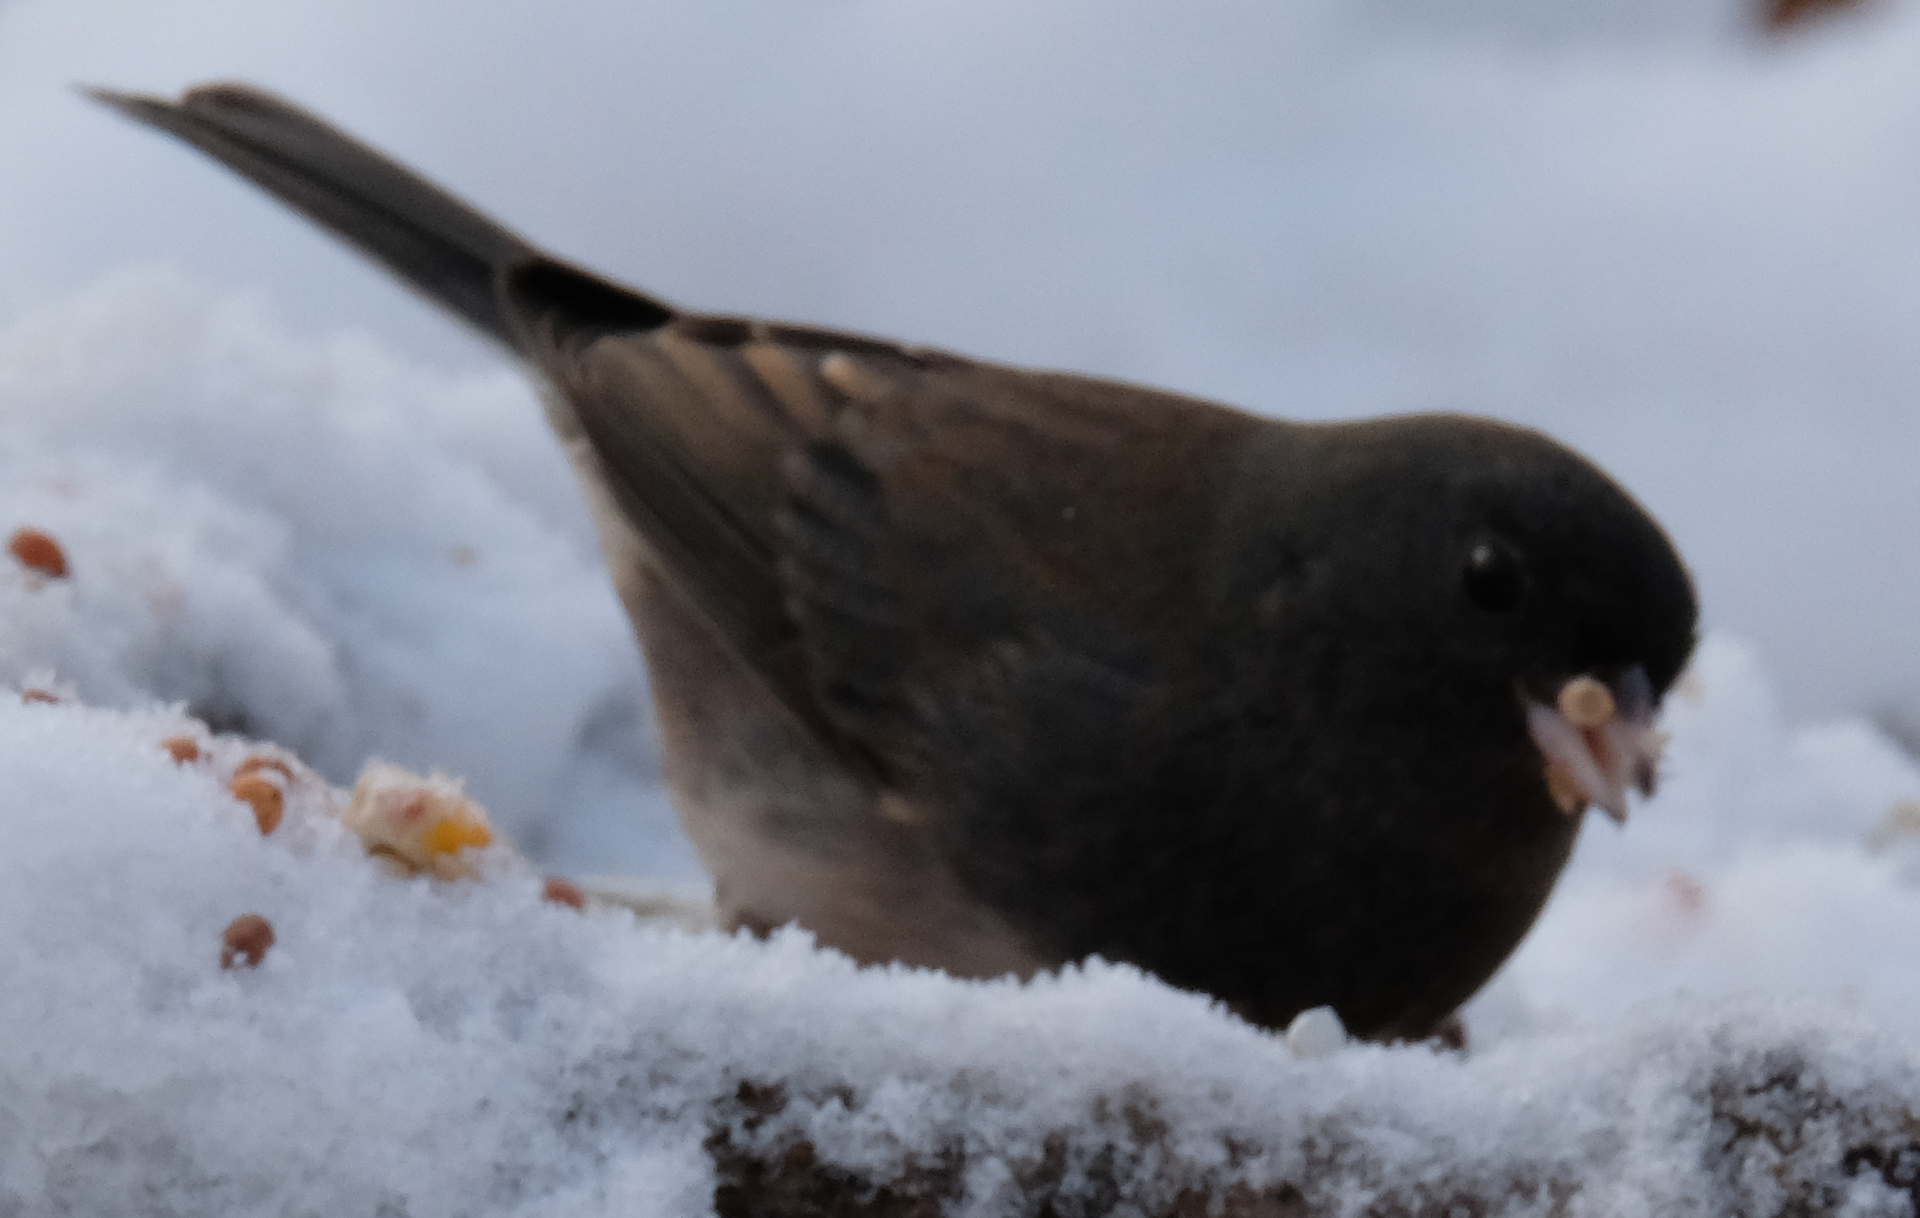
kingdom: Animalia
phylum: Chordata
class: Aves
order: Passeriformes
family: Passerellidae
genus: Junco
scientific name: Junco hyemalis
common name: Dark-eyed junco
